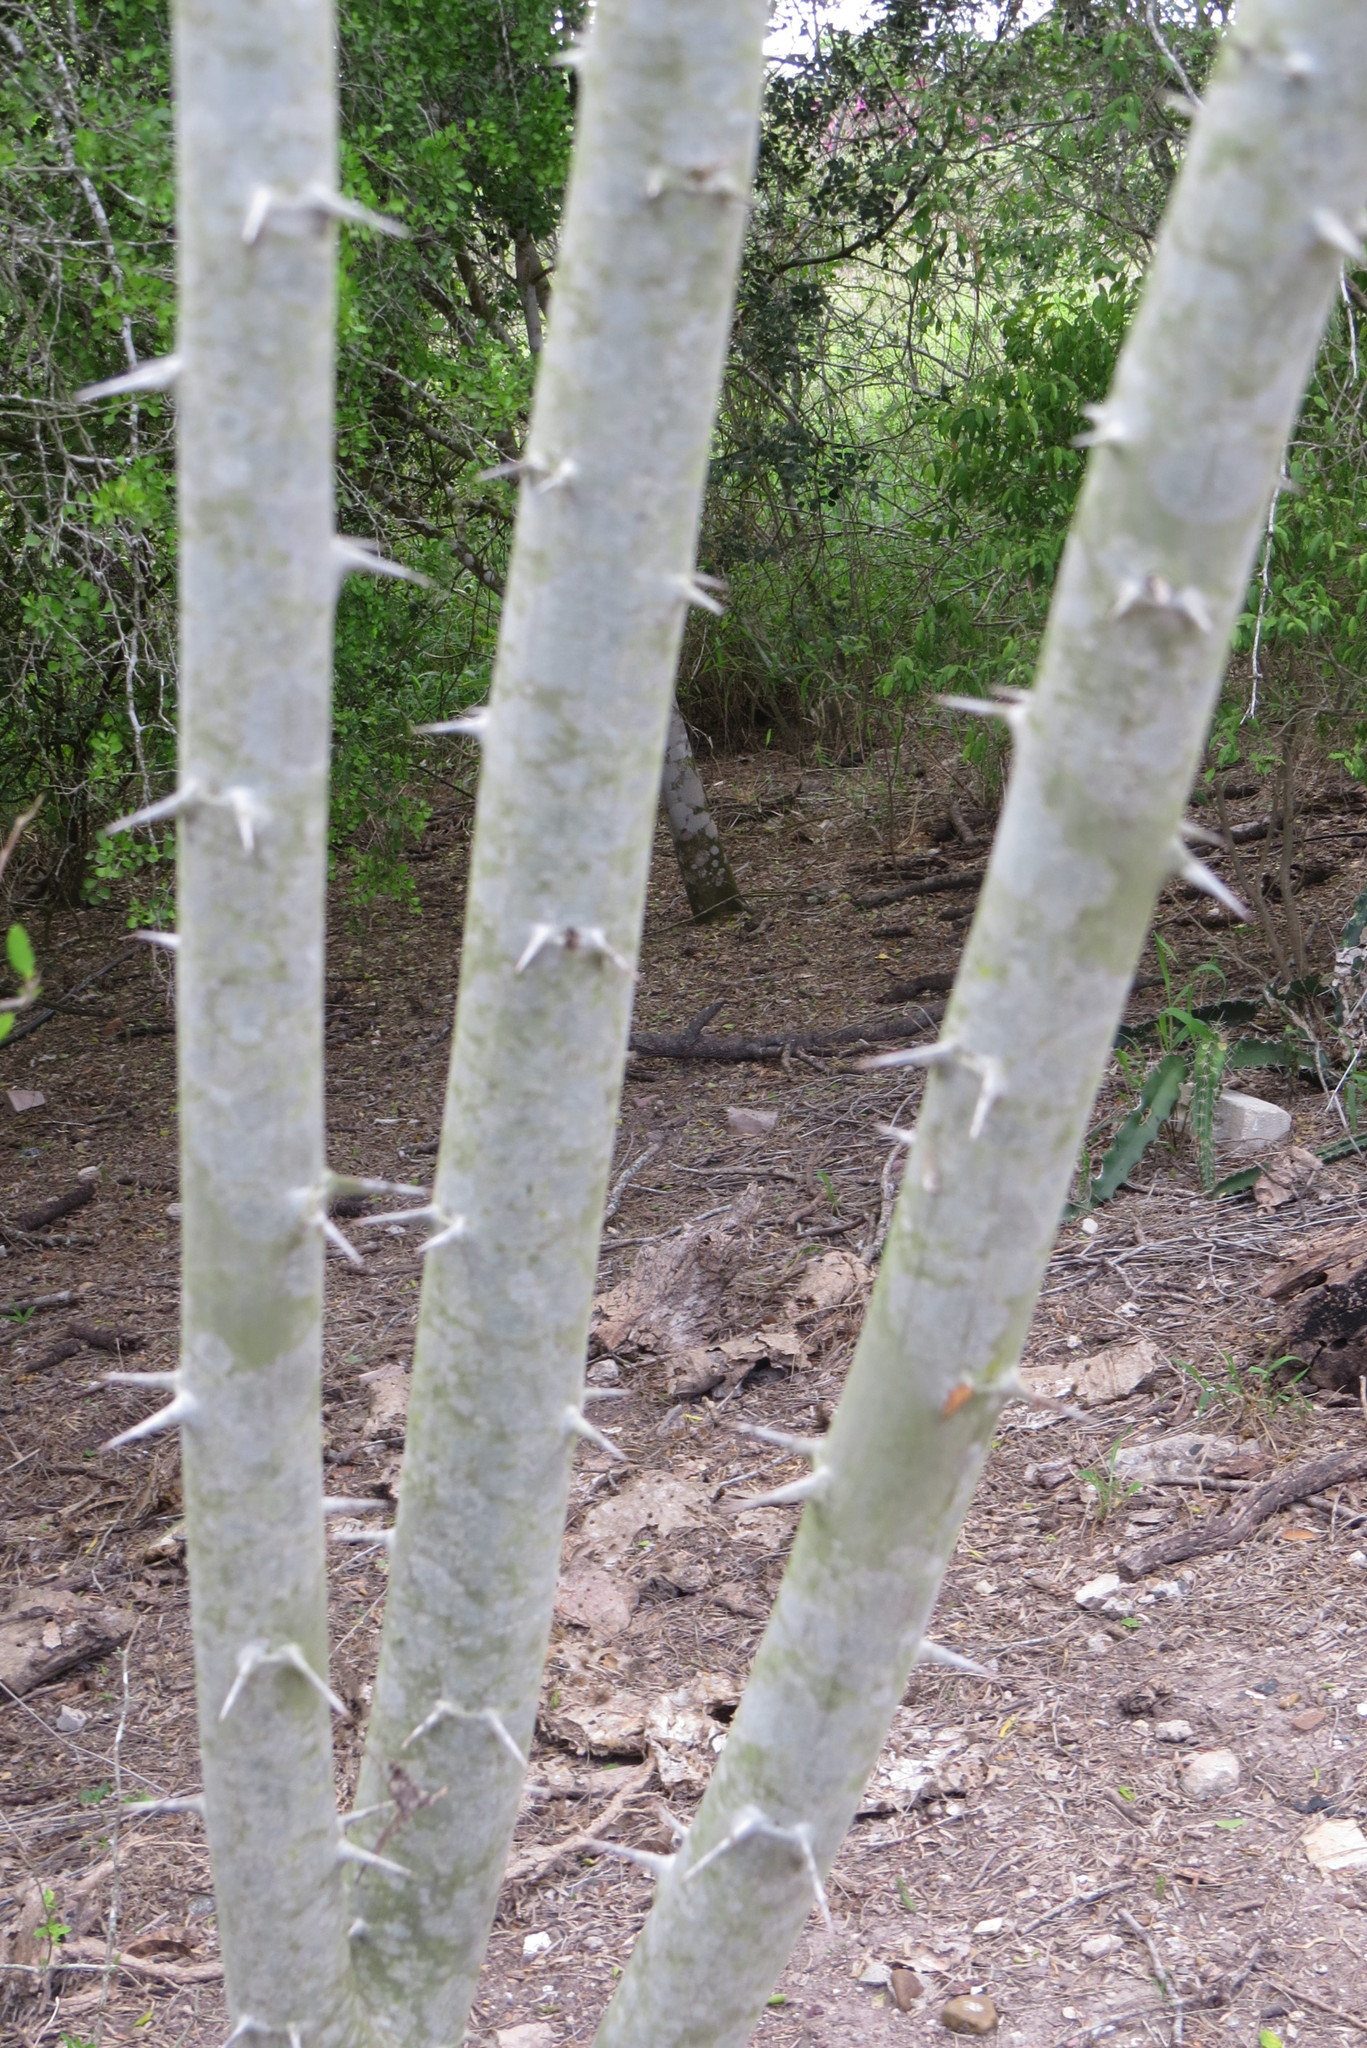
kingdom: Plantae
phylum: Tracheophyta
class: Magnoliopsida
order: Fabales
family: Fabaceae
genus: Havardia
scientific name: Havardia pallens
